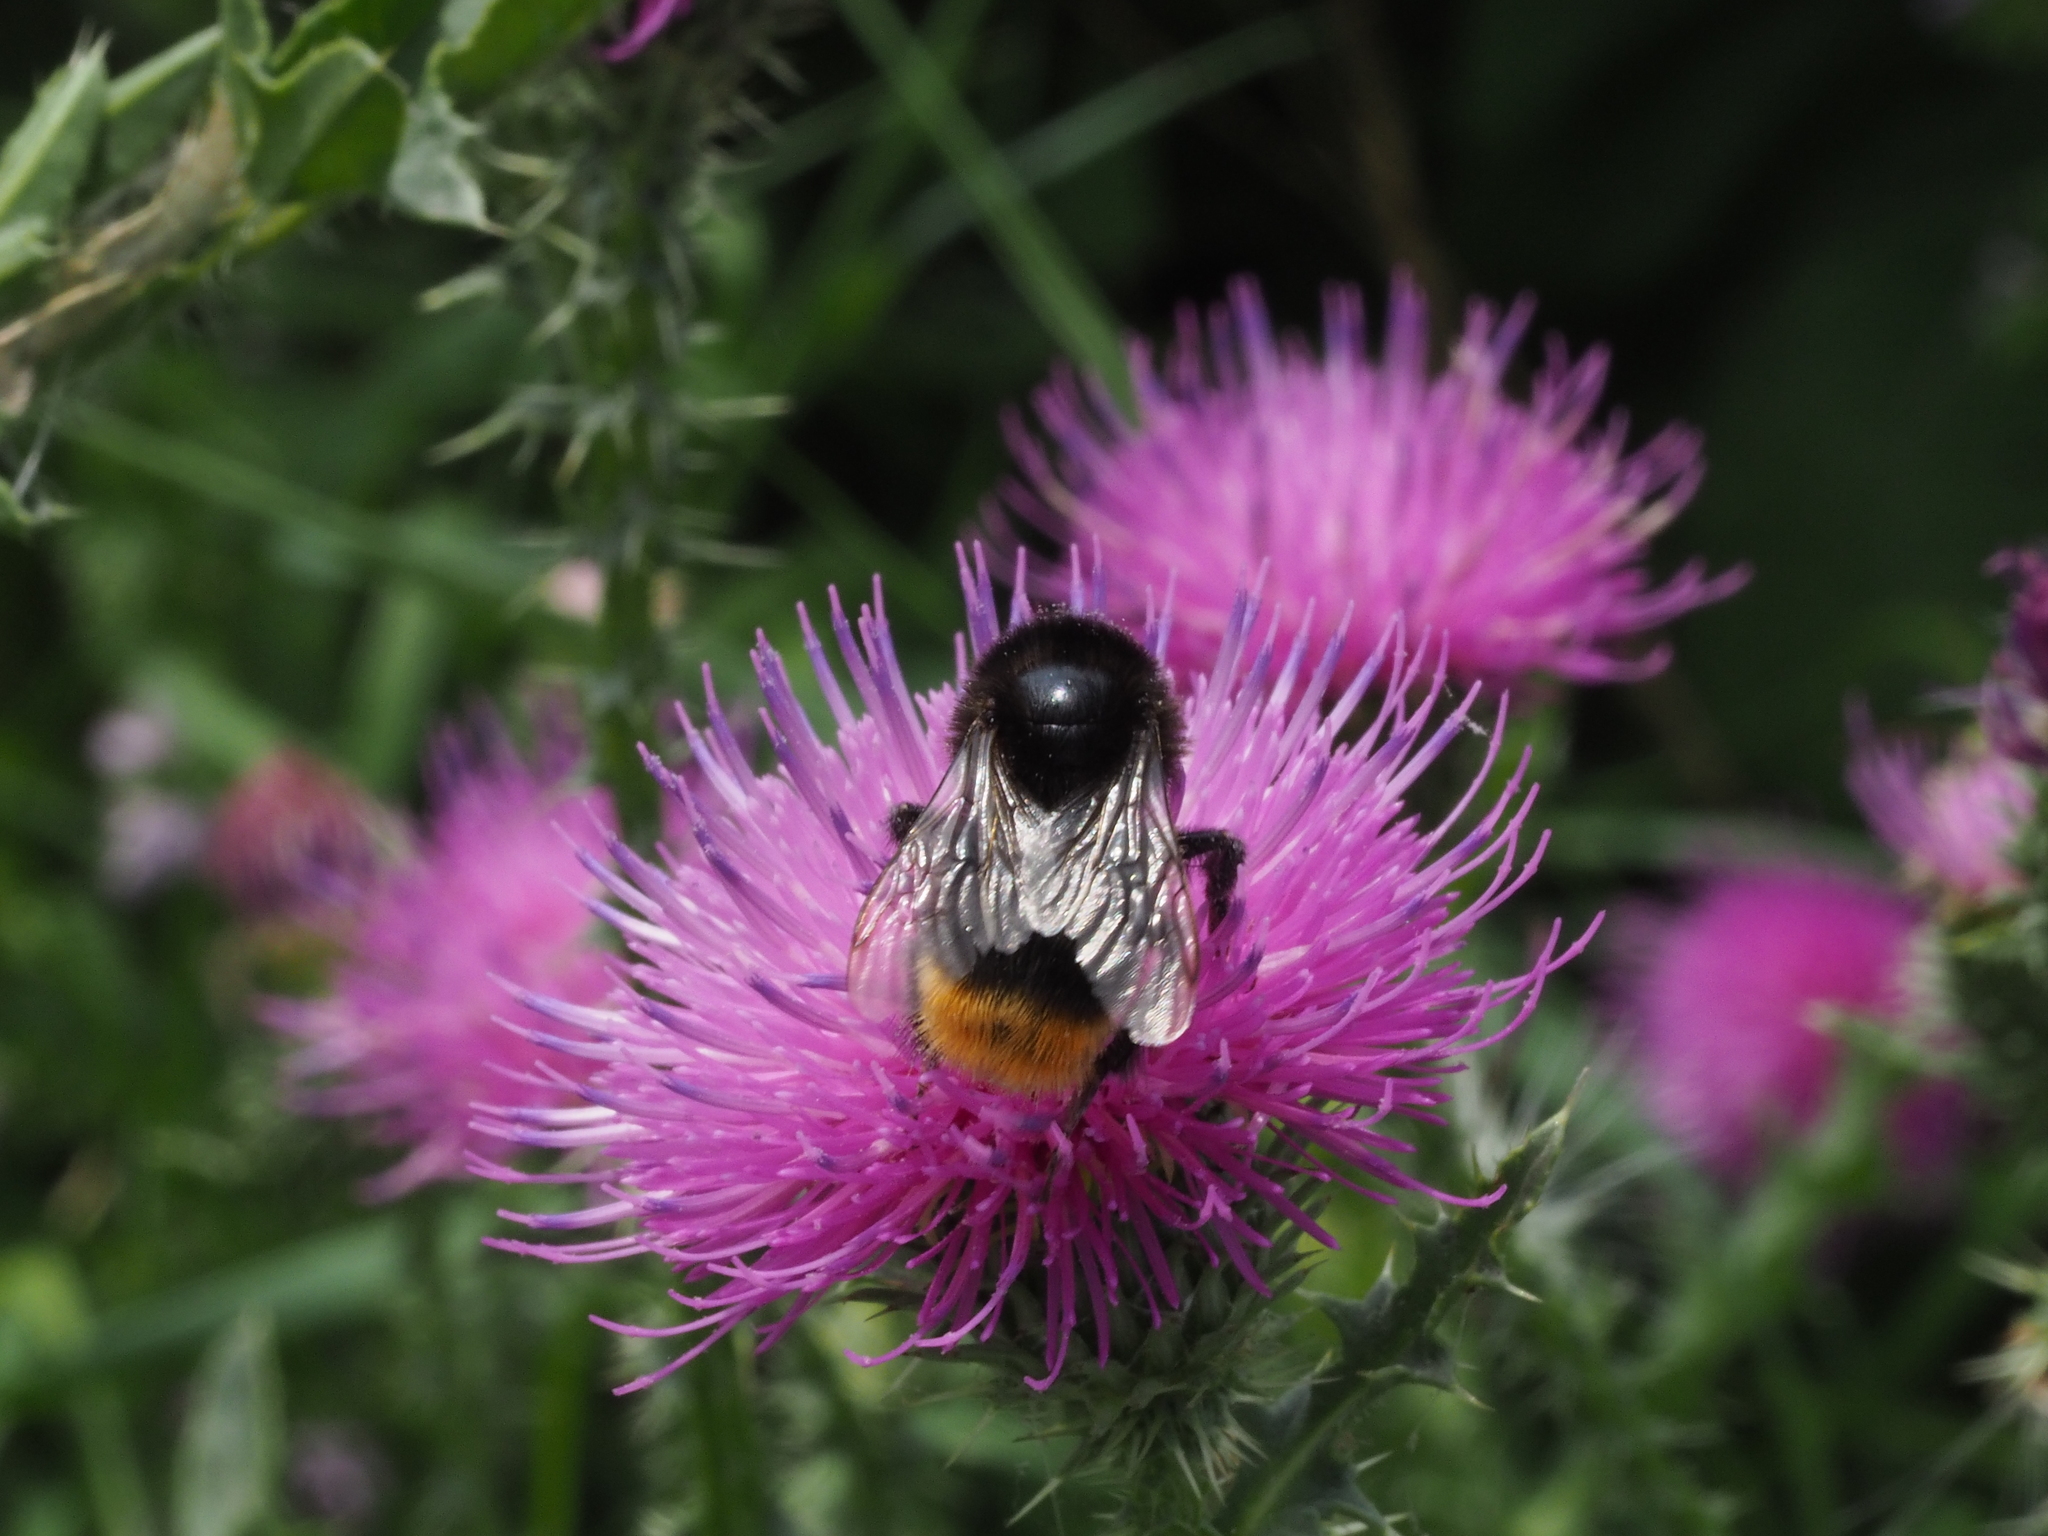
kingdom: Animalia
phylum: Arthropoda
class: Insecta
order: Hymenoptera
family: Apidae
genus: Bombus
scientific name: Bombus lapidarius
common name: Large red-tailed humble-bee
